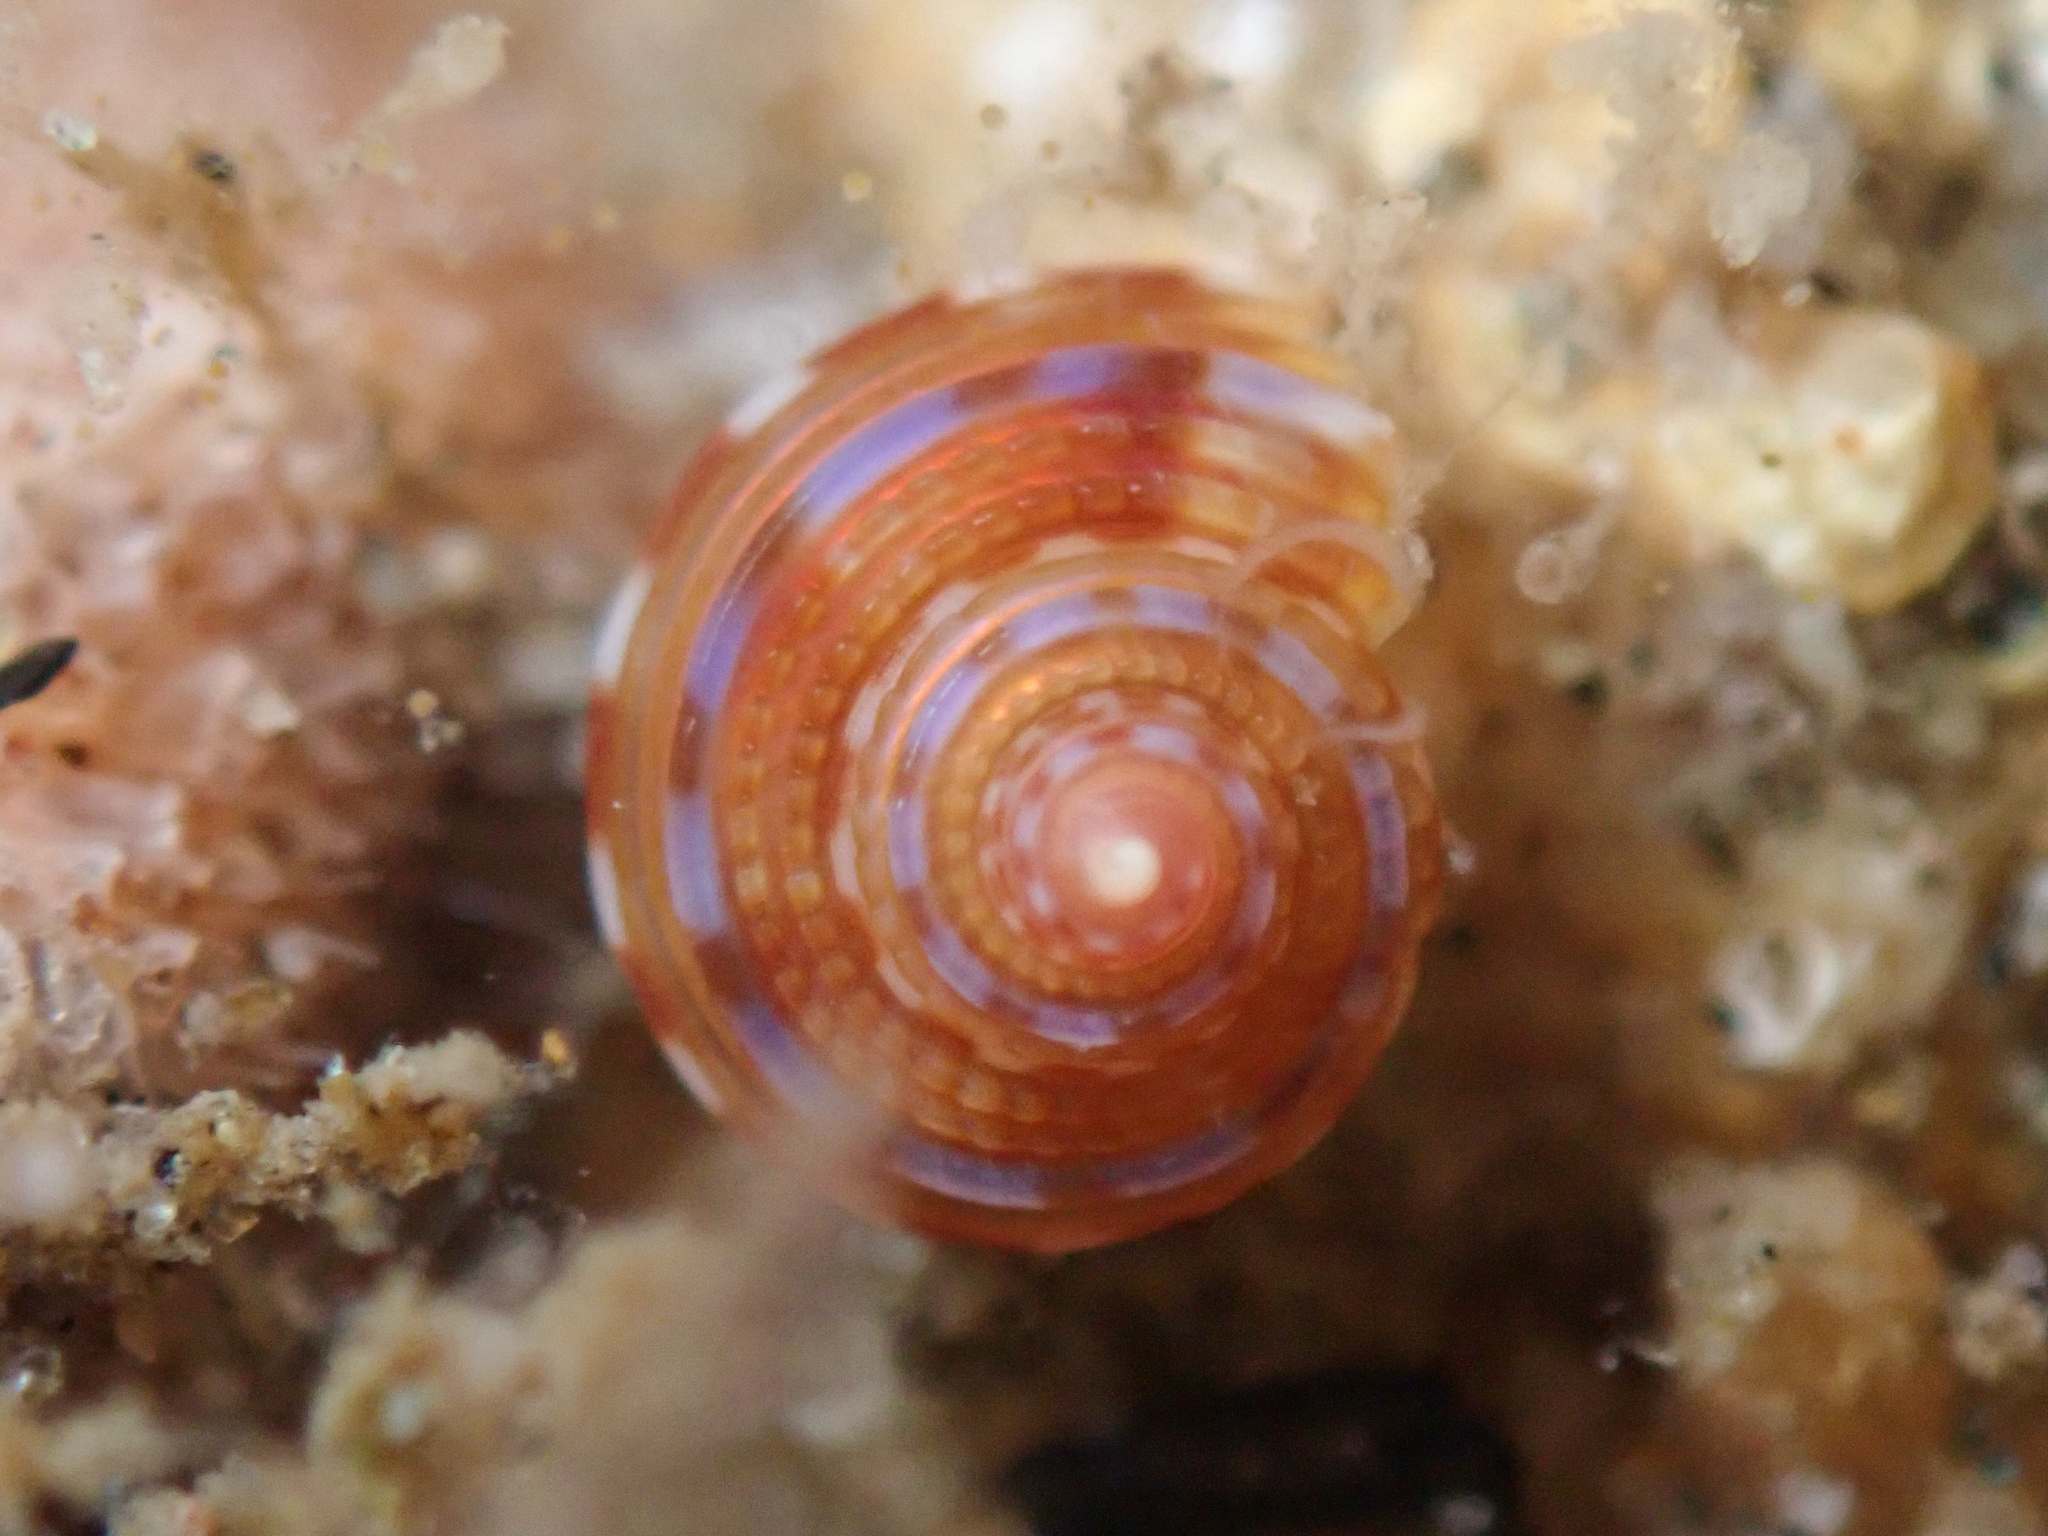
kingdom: Animalia
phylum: Mollusca
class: Gastropoda
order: Trochida
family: Calliostomatidae
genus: Calliostoma
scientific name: Calliostoma supragranosum
